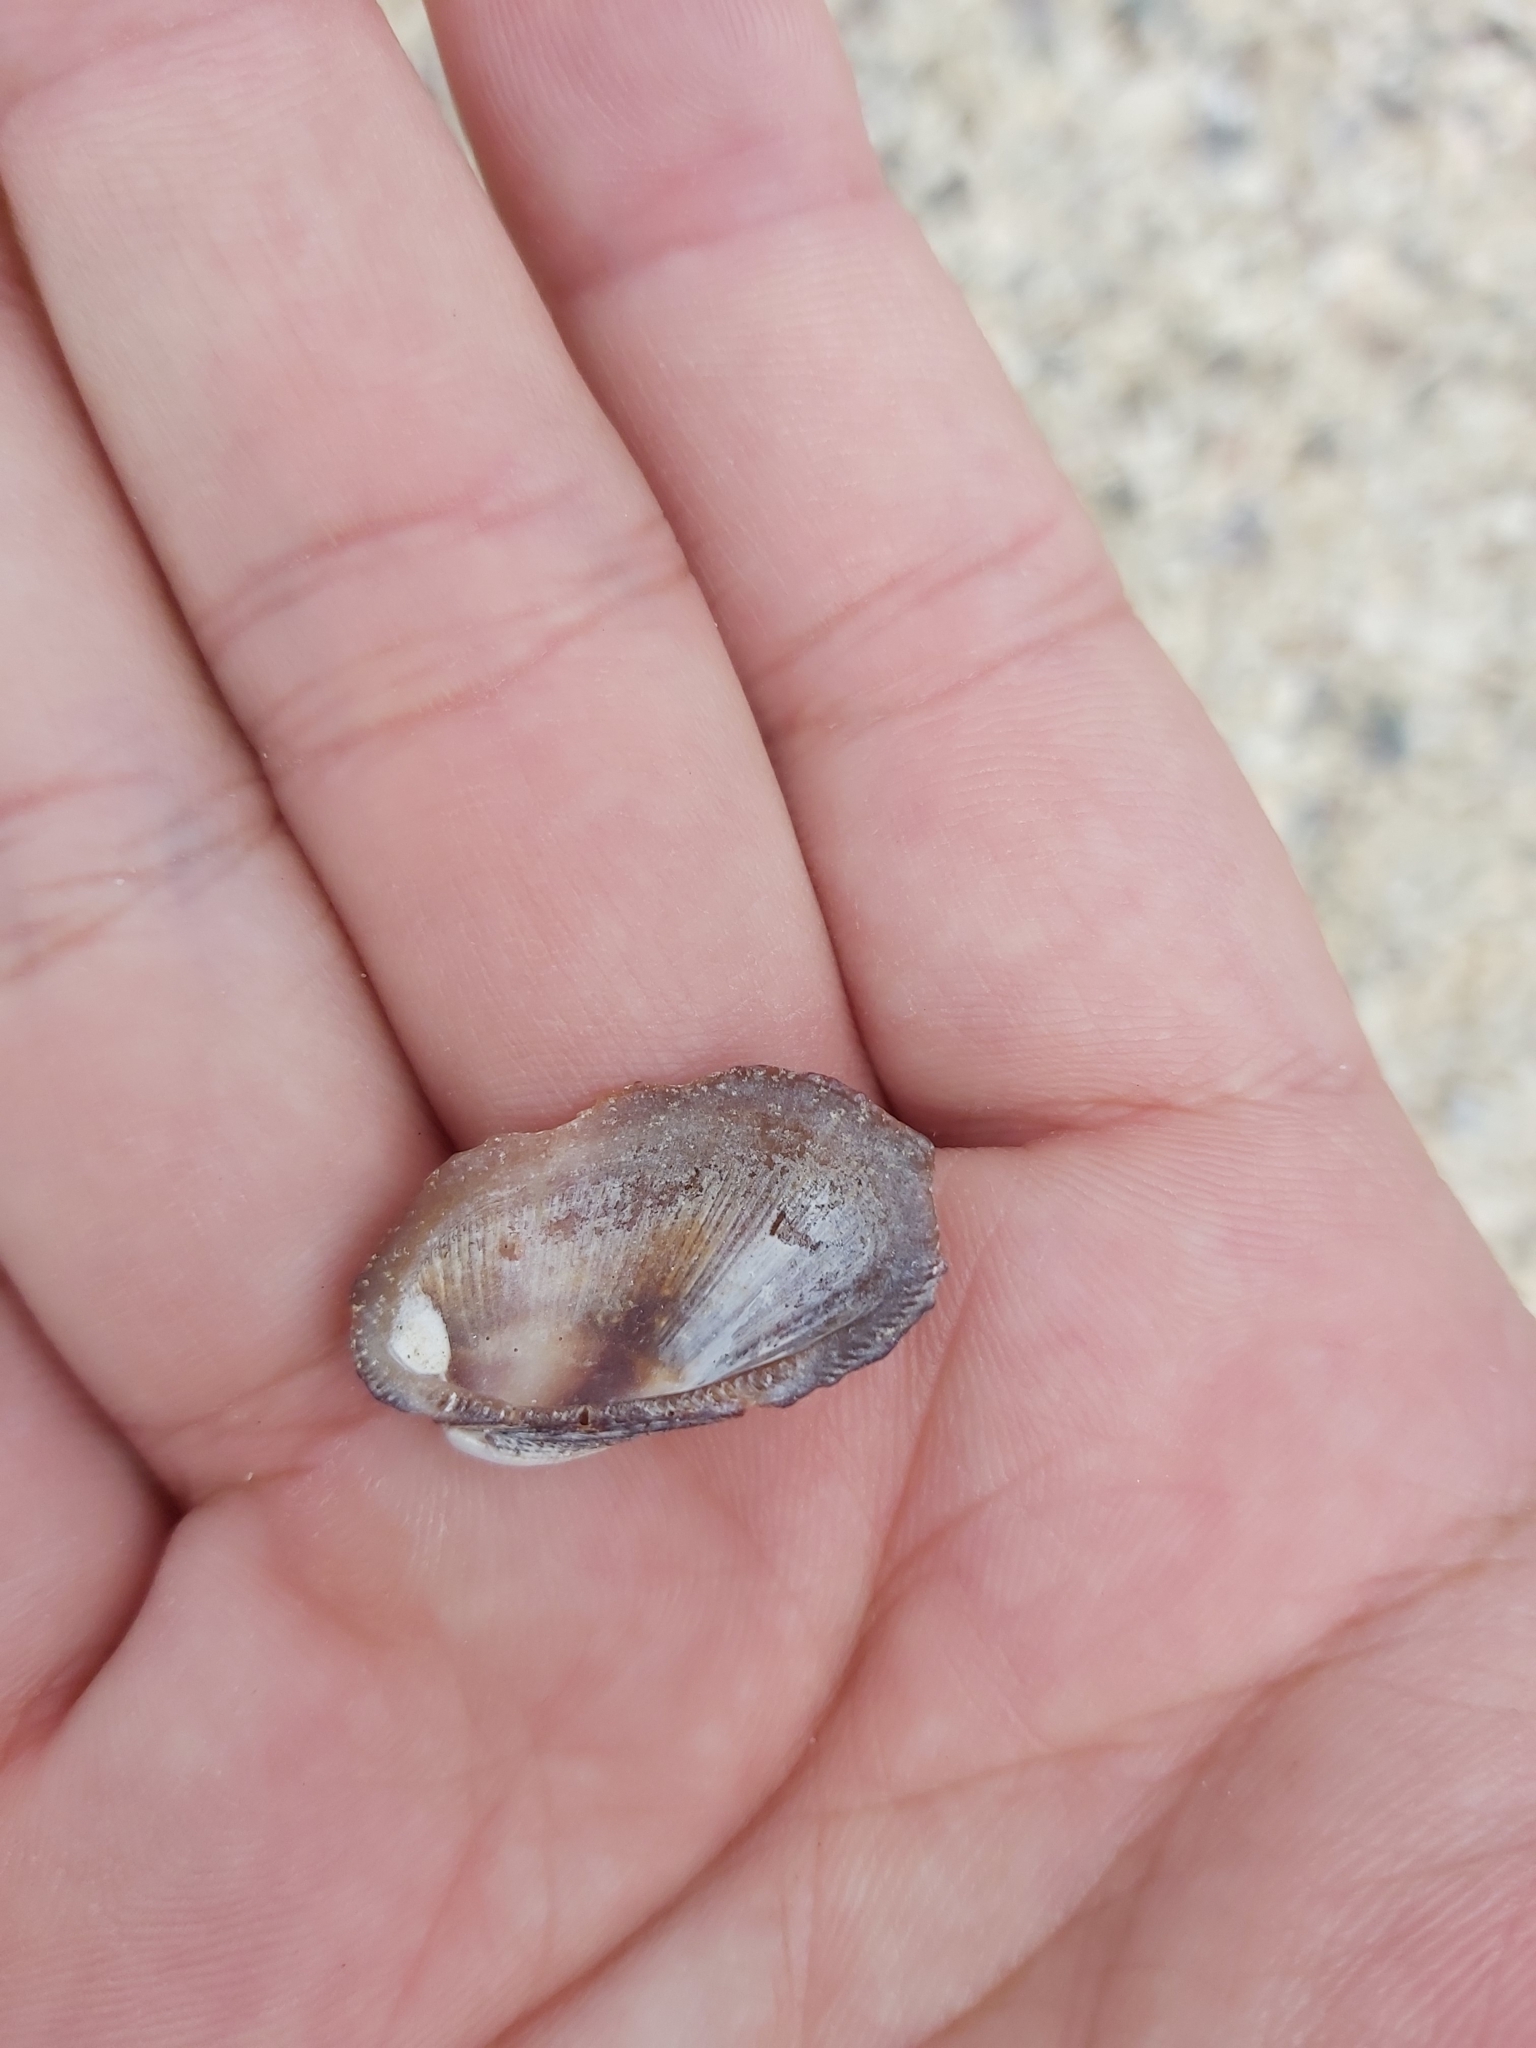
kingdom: Animalia
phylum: Mollusca
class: Bivalvia
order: Arcida
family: Arcidae
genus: Barbatia
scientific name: Barbatia amygdalumtostum
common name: Burnt-almond ark
